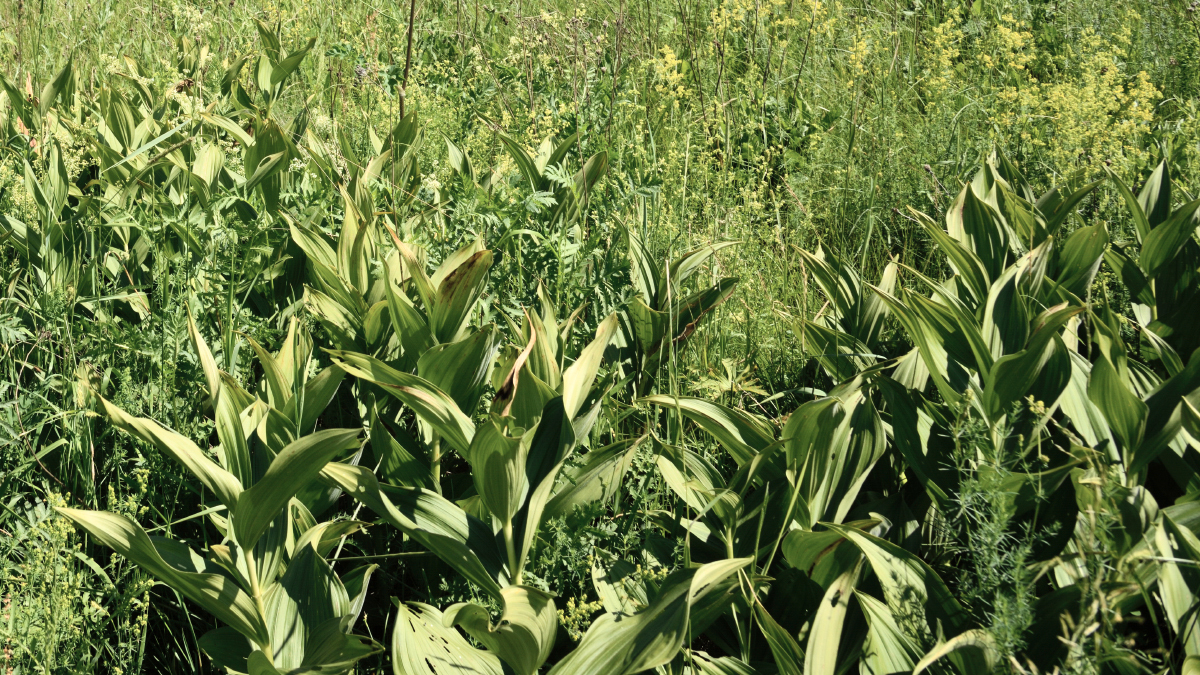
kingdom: Plantae
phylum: Tracheophyta
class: Liliopsida
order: Liliales
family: Melanthiaceae
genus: Veratrum
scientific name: Veratrum lobelianum
